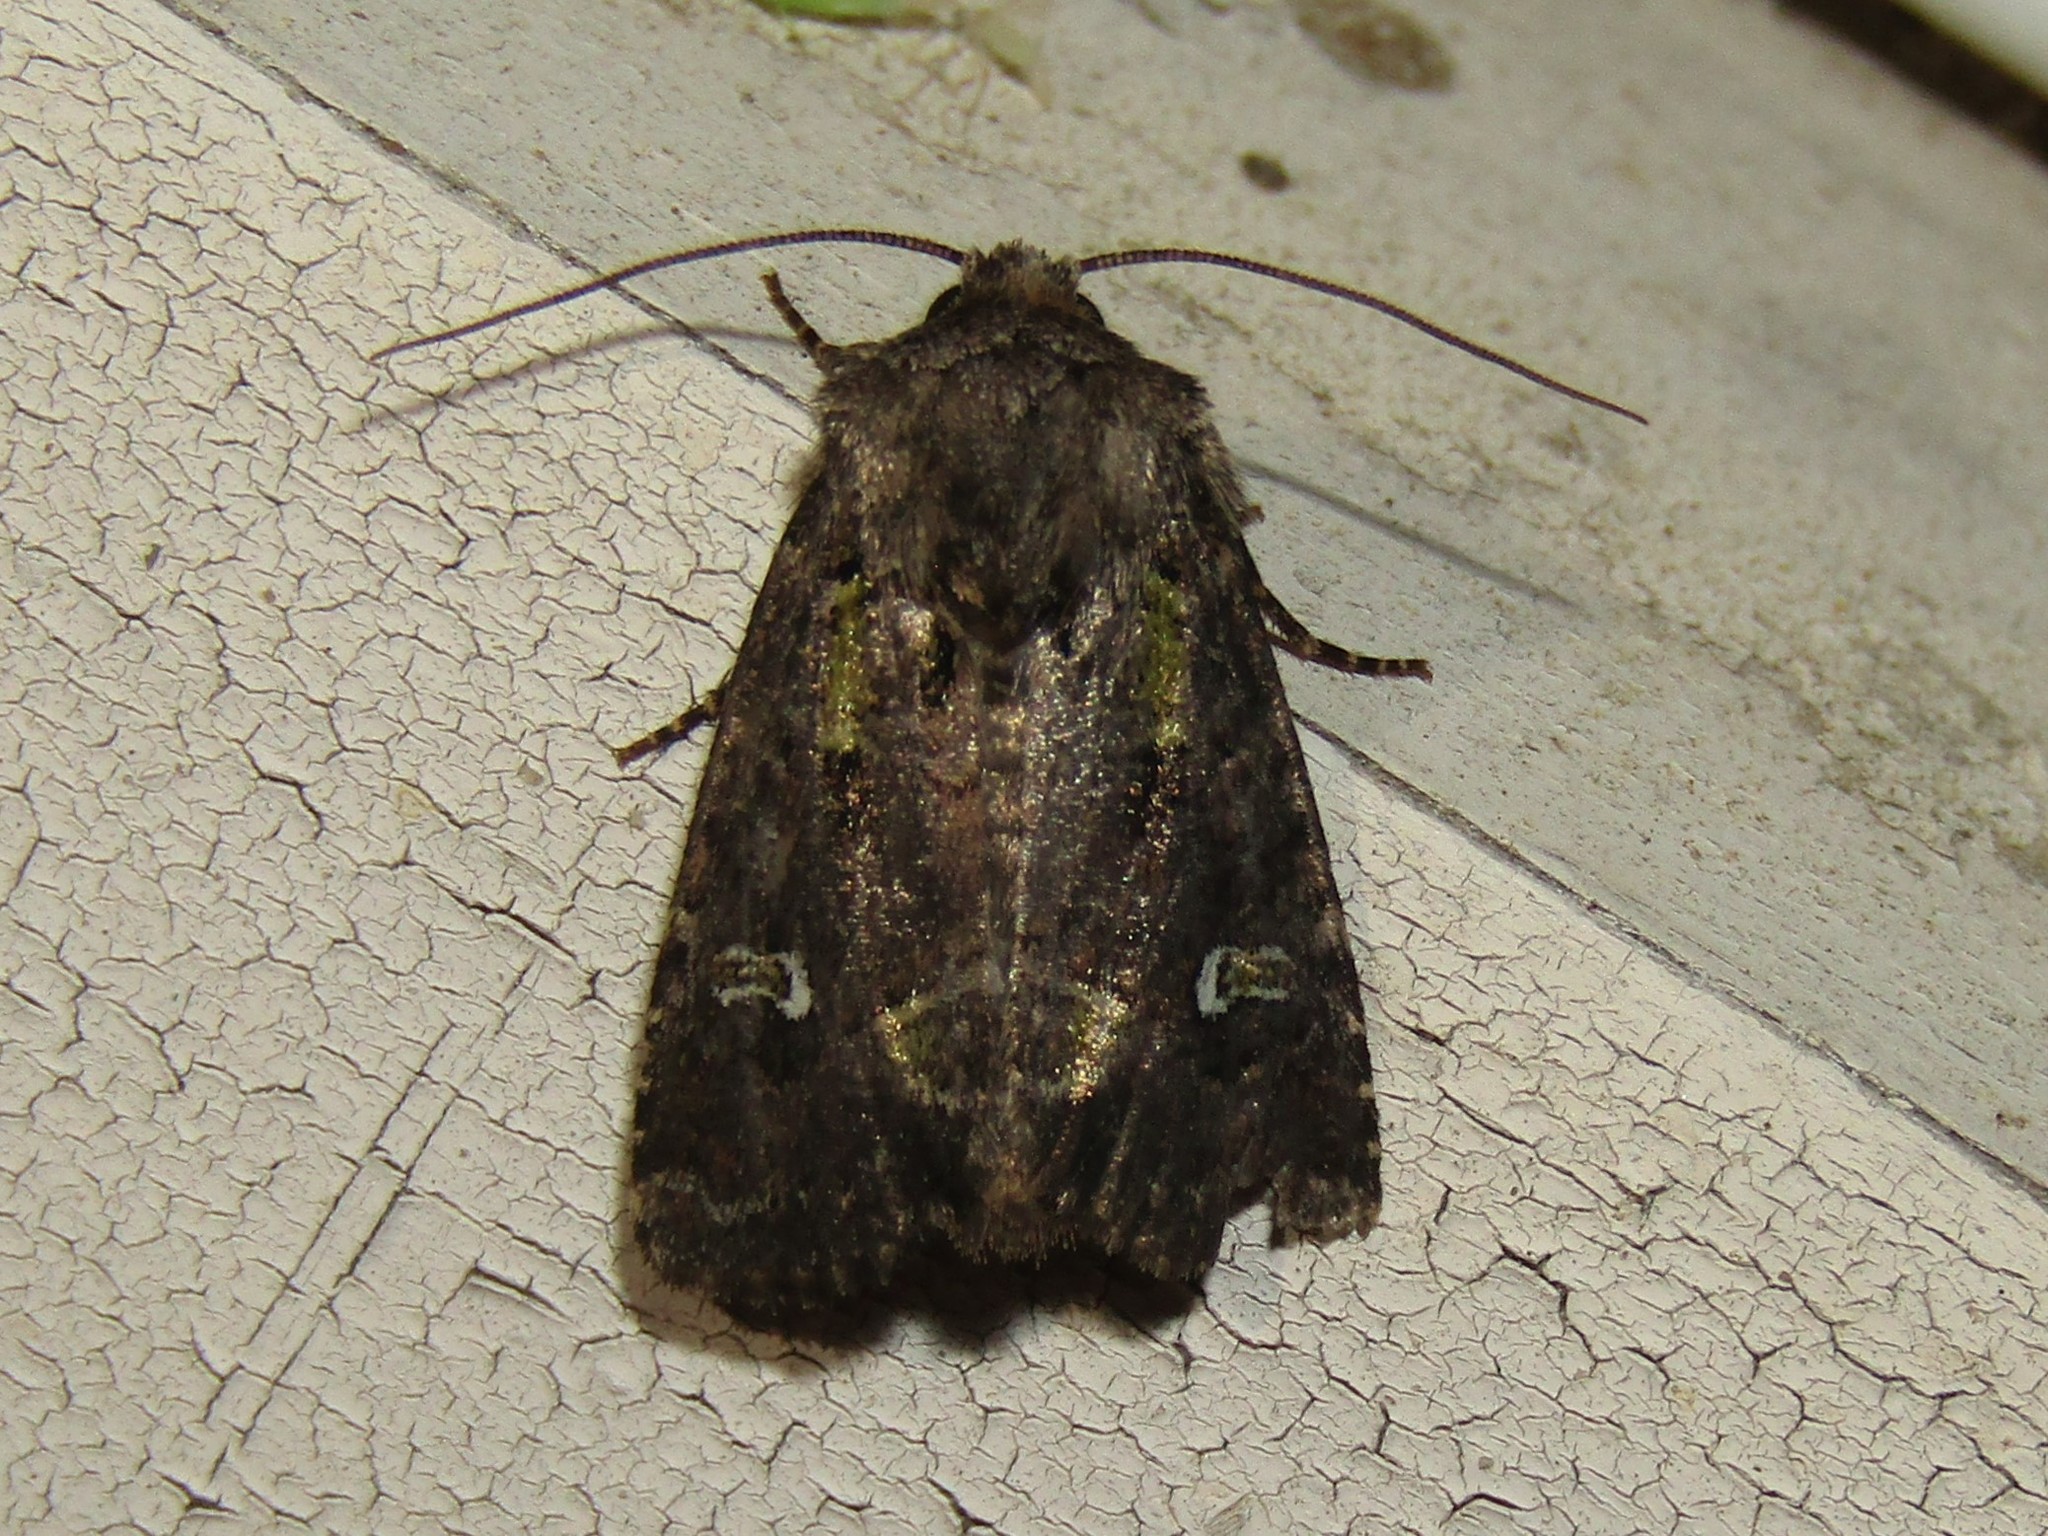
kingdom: Animalia
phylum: Arthropoda
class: Insecta
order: Lepidoptera
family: Noctuidae
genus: Lacinipolia
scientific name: Lacinipolia renigera
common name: Kidney-spotted minor
